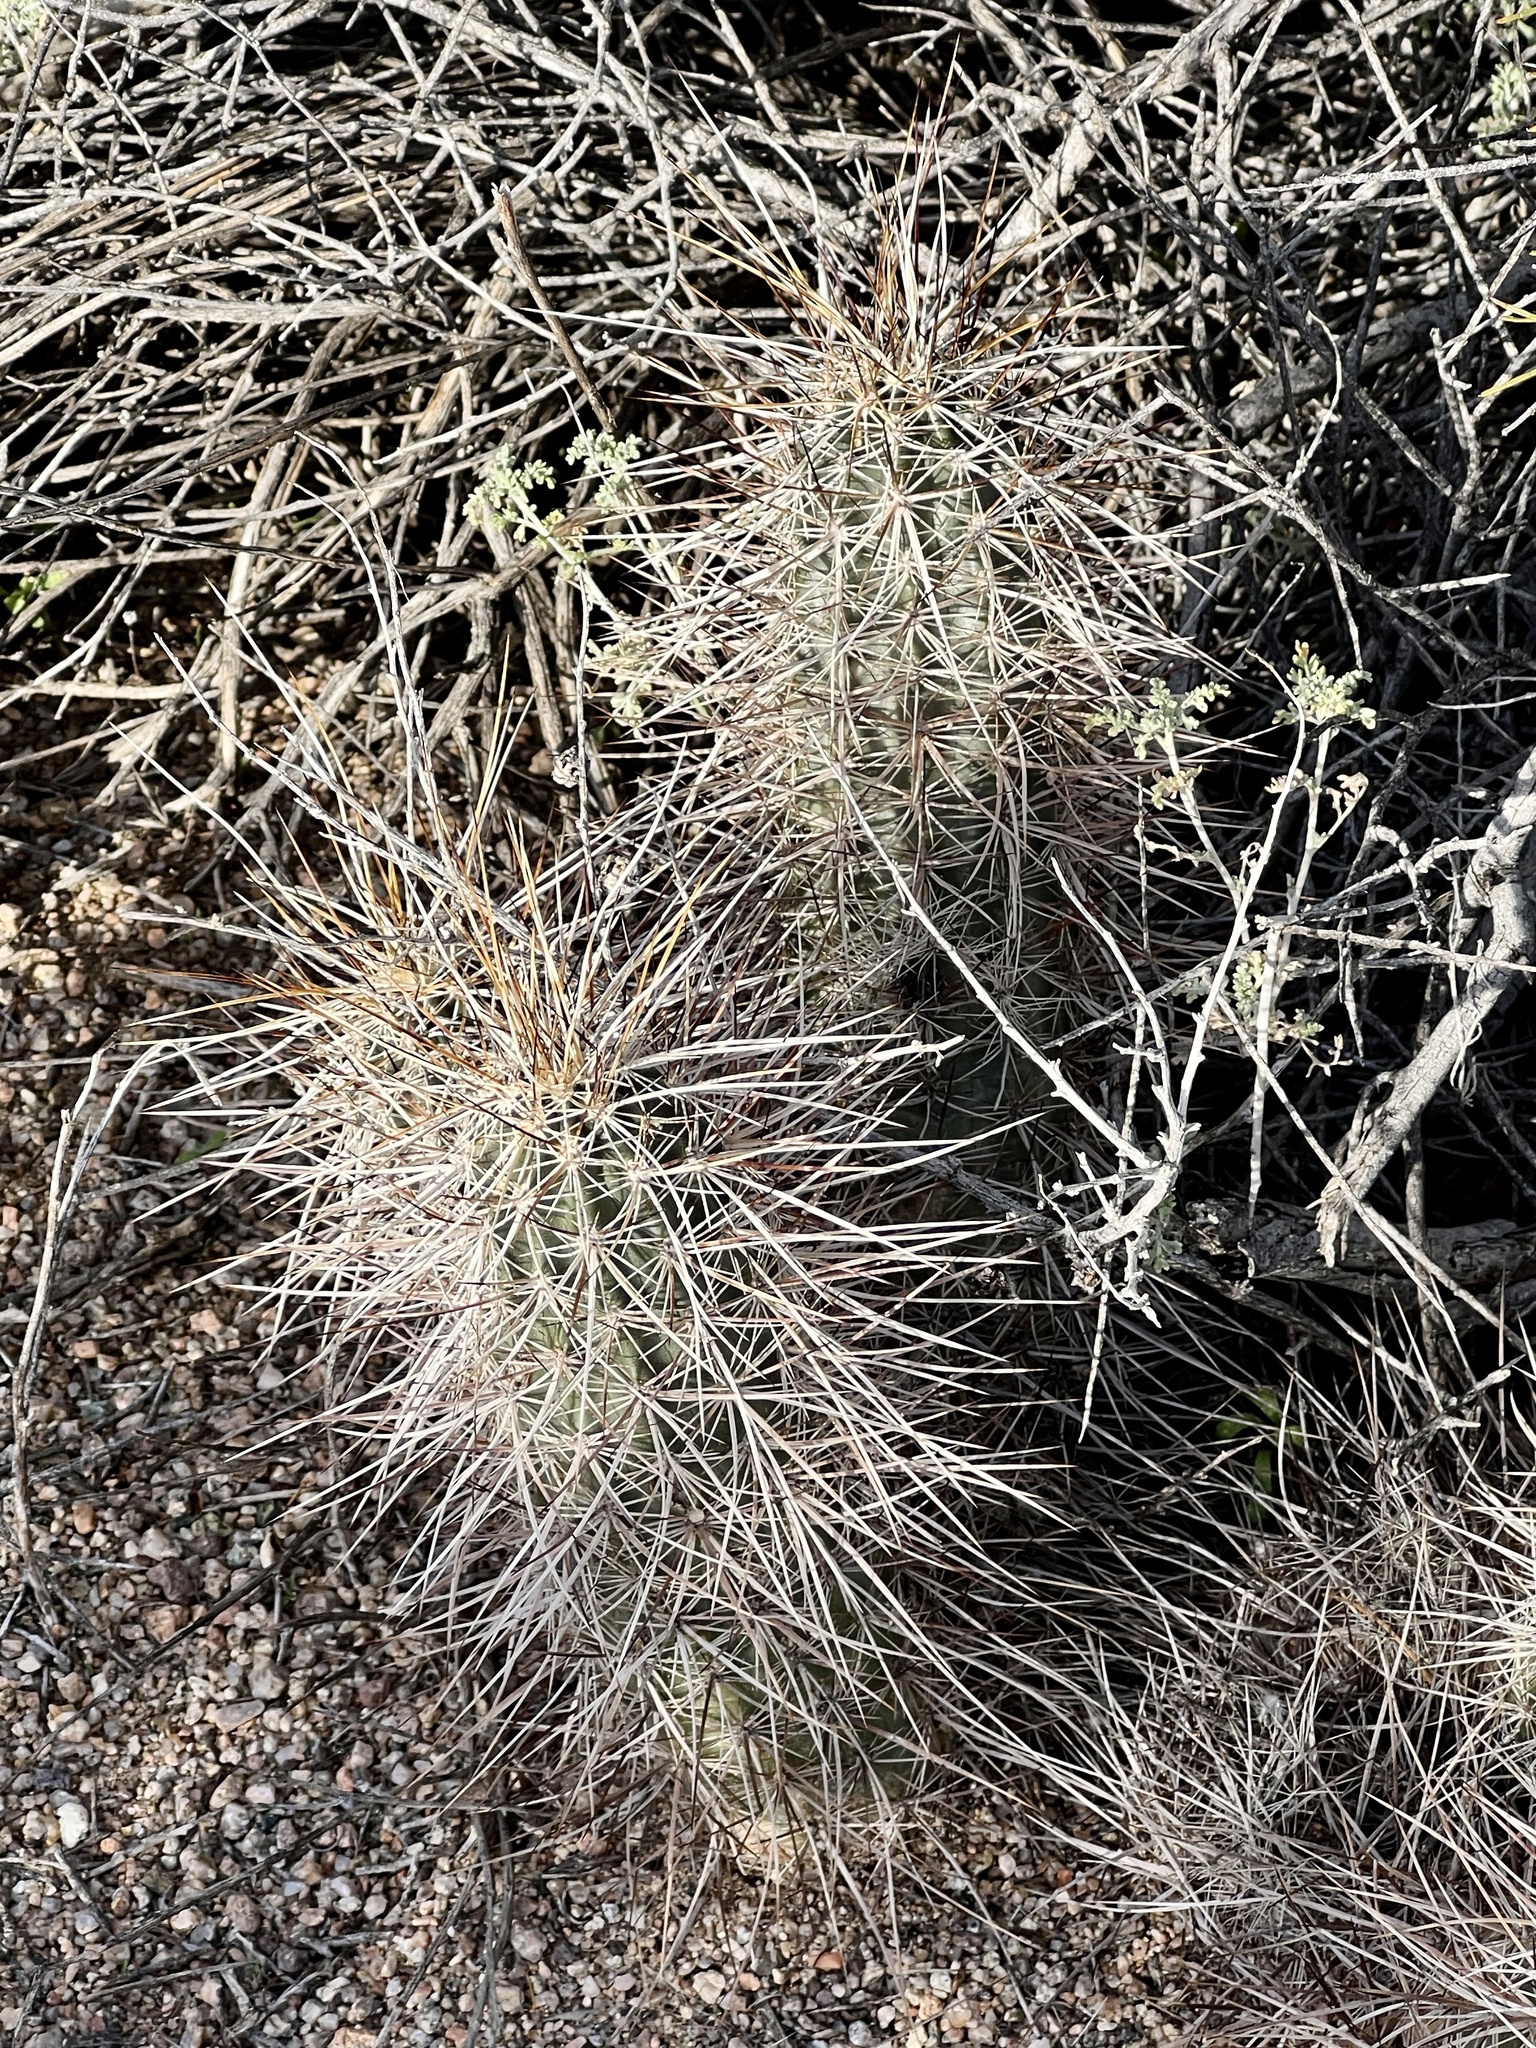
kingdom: Plantae
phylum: Tracheophyta
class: Magnoliopsida
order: Caryophyllales
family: Cactaceae
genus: Echinocereus
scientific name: Echinocereus engelmannii
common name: Engelmann's hedgehog cactus
